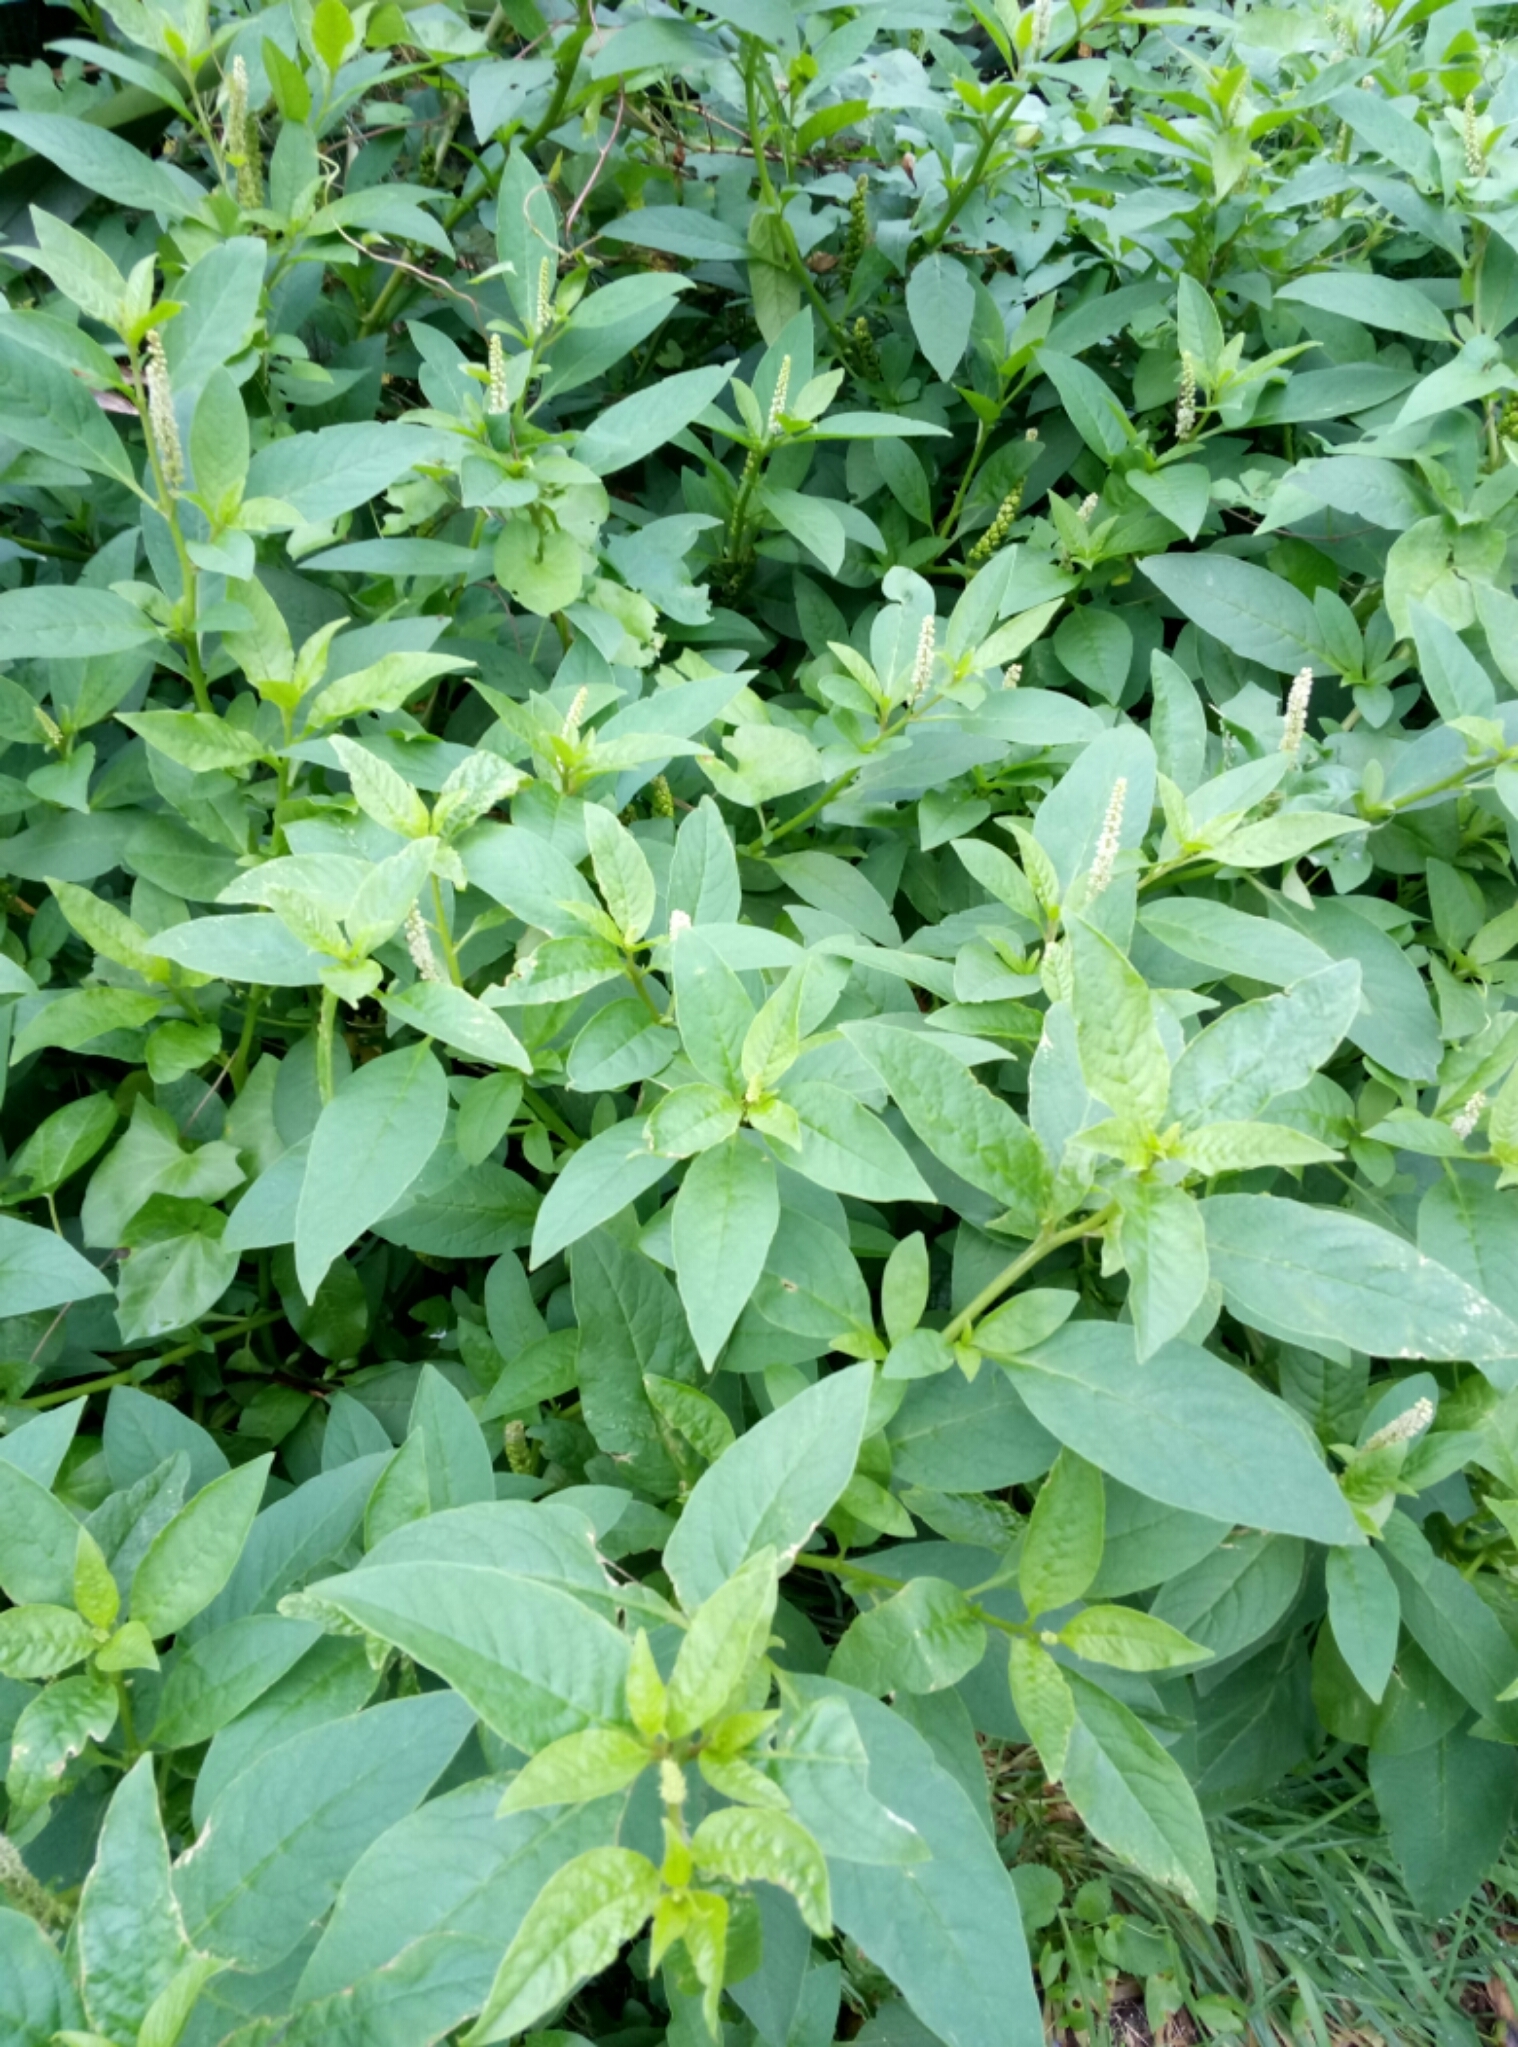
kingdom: Plantae
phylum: Tracheophyta
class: Magnoliopsida
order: Caryophyllales
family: Phytolaccaceae
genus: Phytolacca
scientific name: Phytolacca icosandra
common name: Button pokeweed
